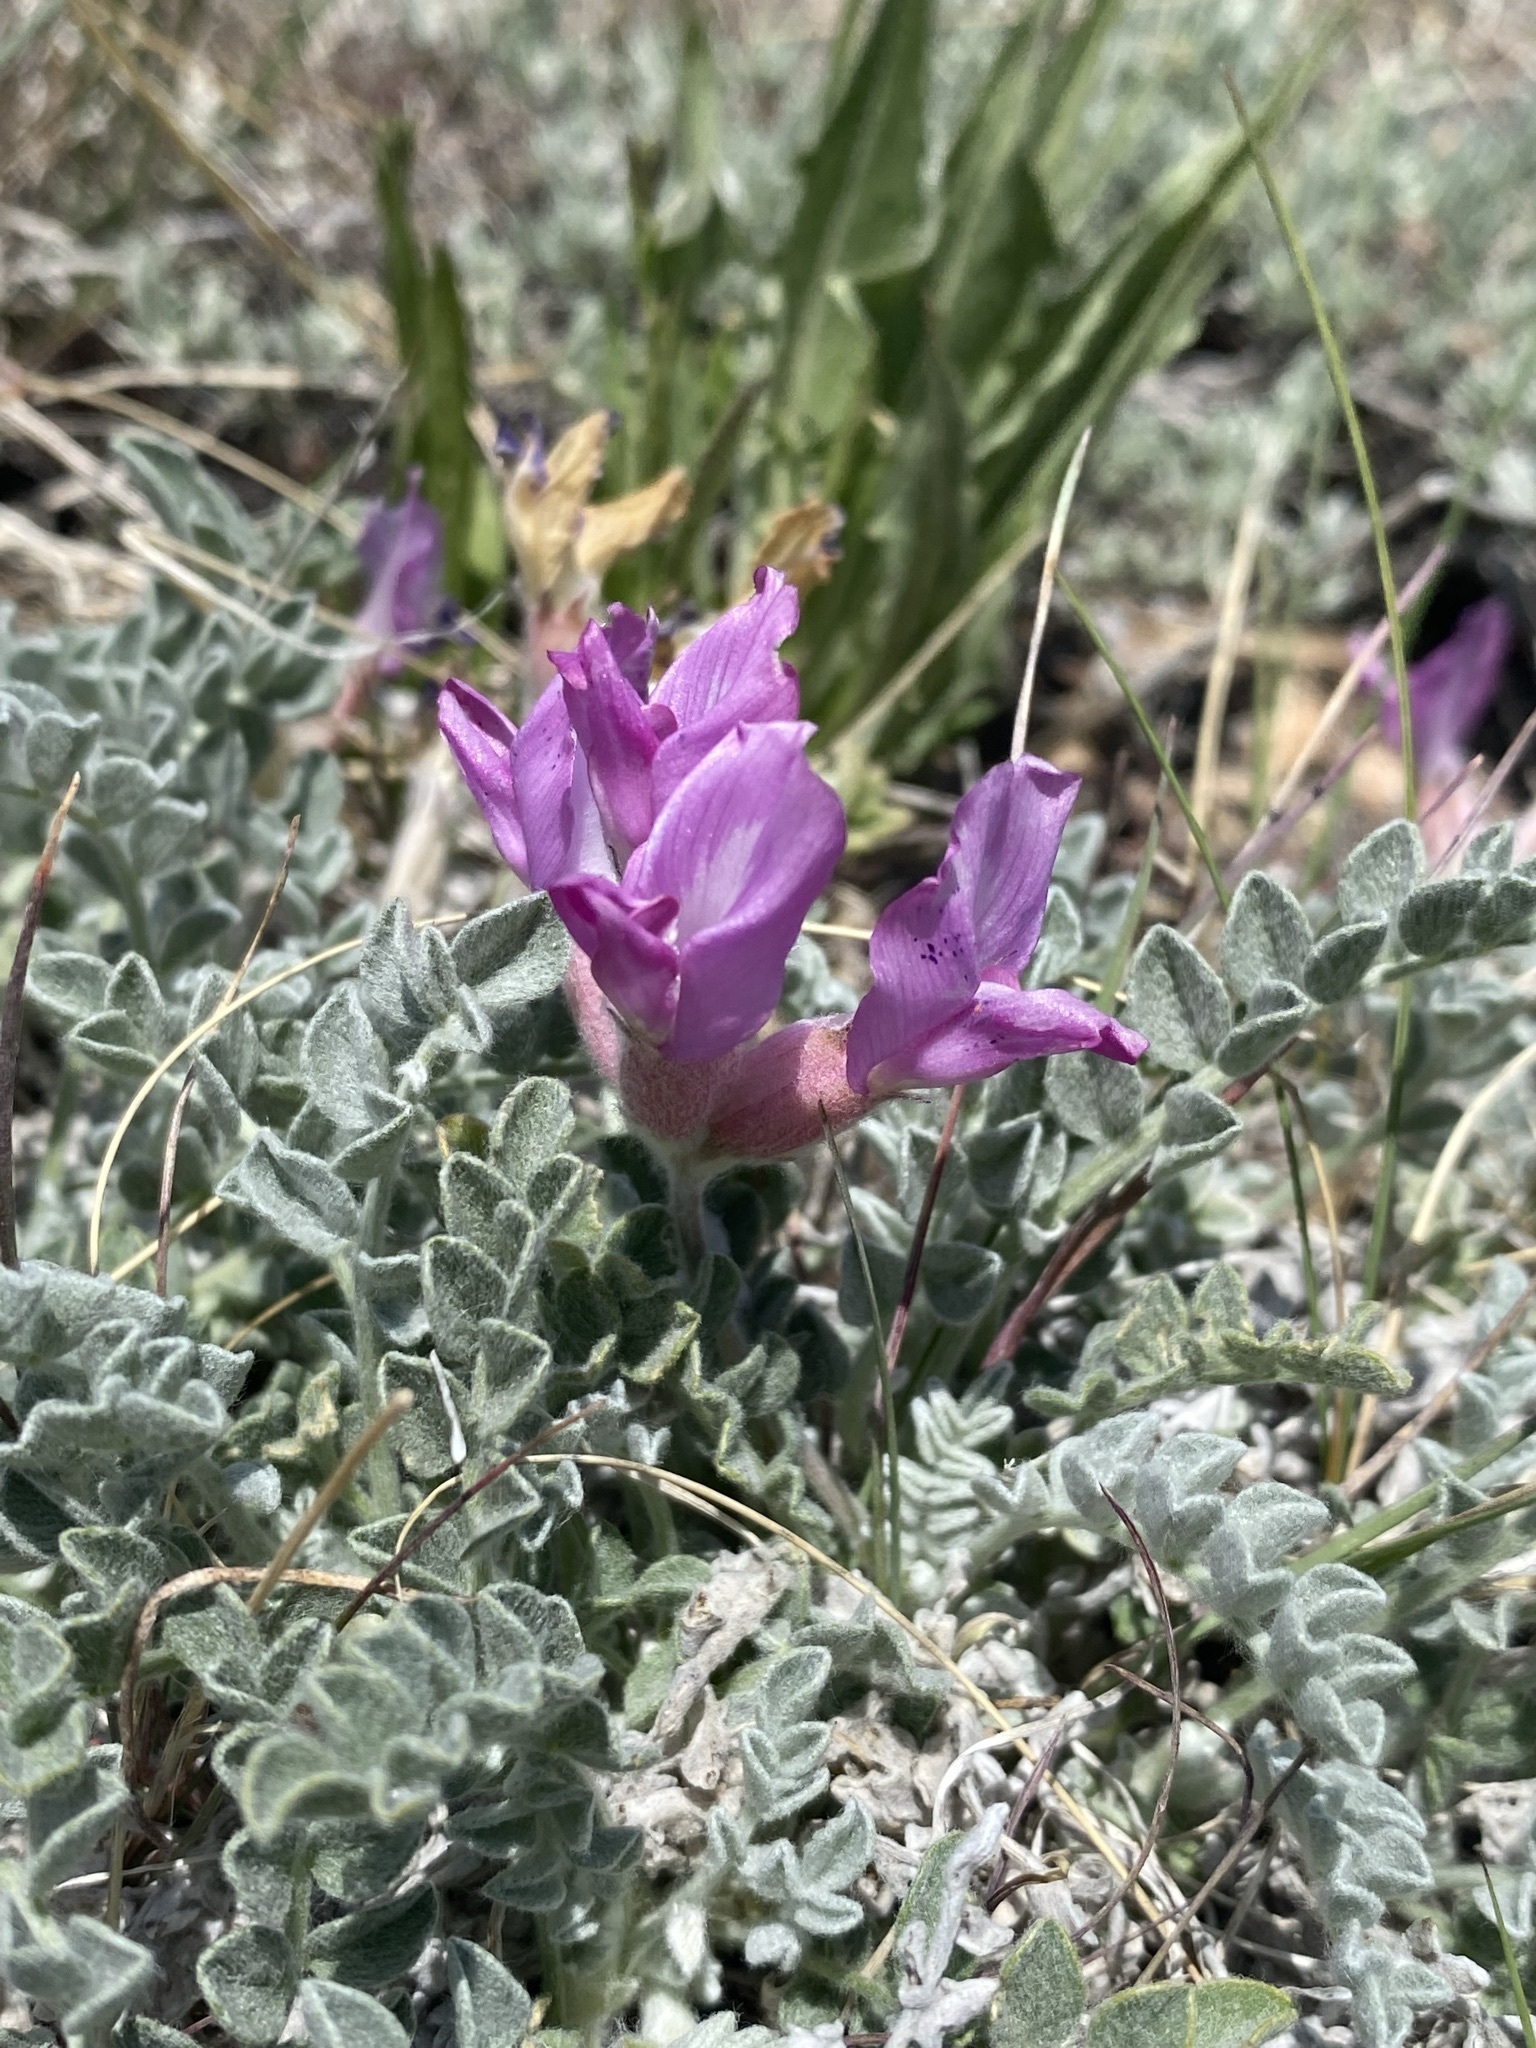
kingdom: Plantae
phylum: Tracheophyta
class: Magnoliopsida
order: Fabales
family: Fabaceae
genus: Astragalus
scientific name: Astragalus utahensis
